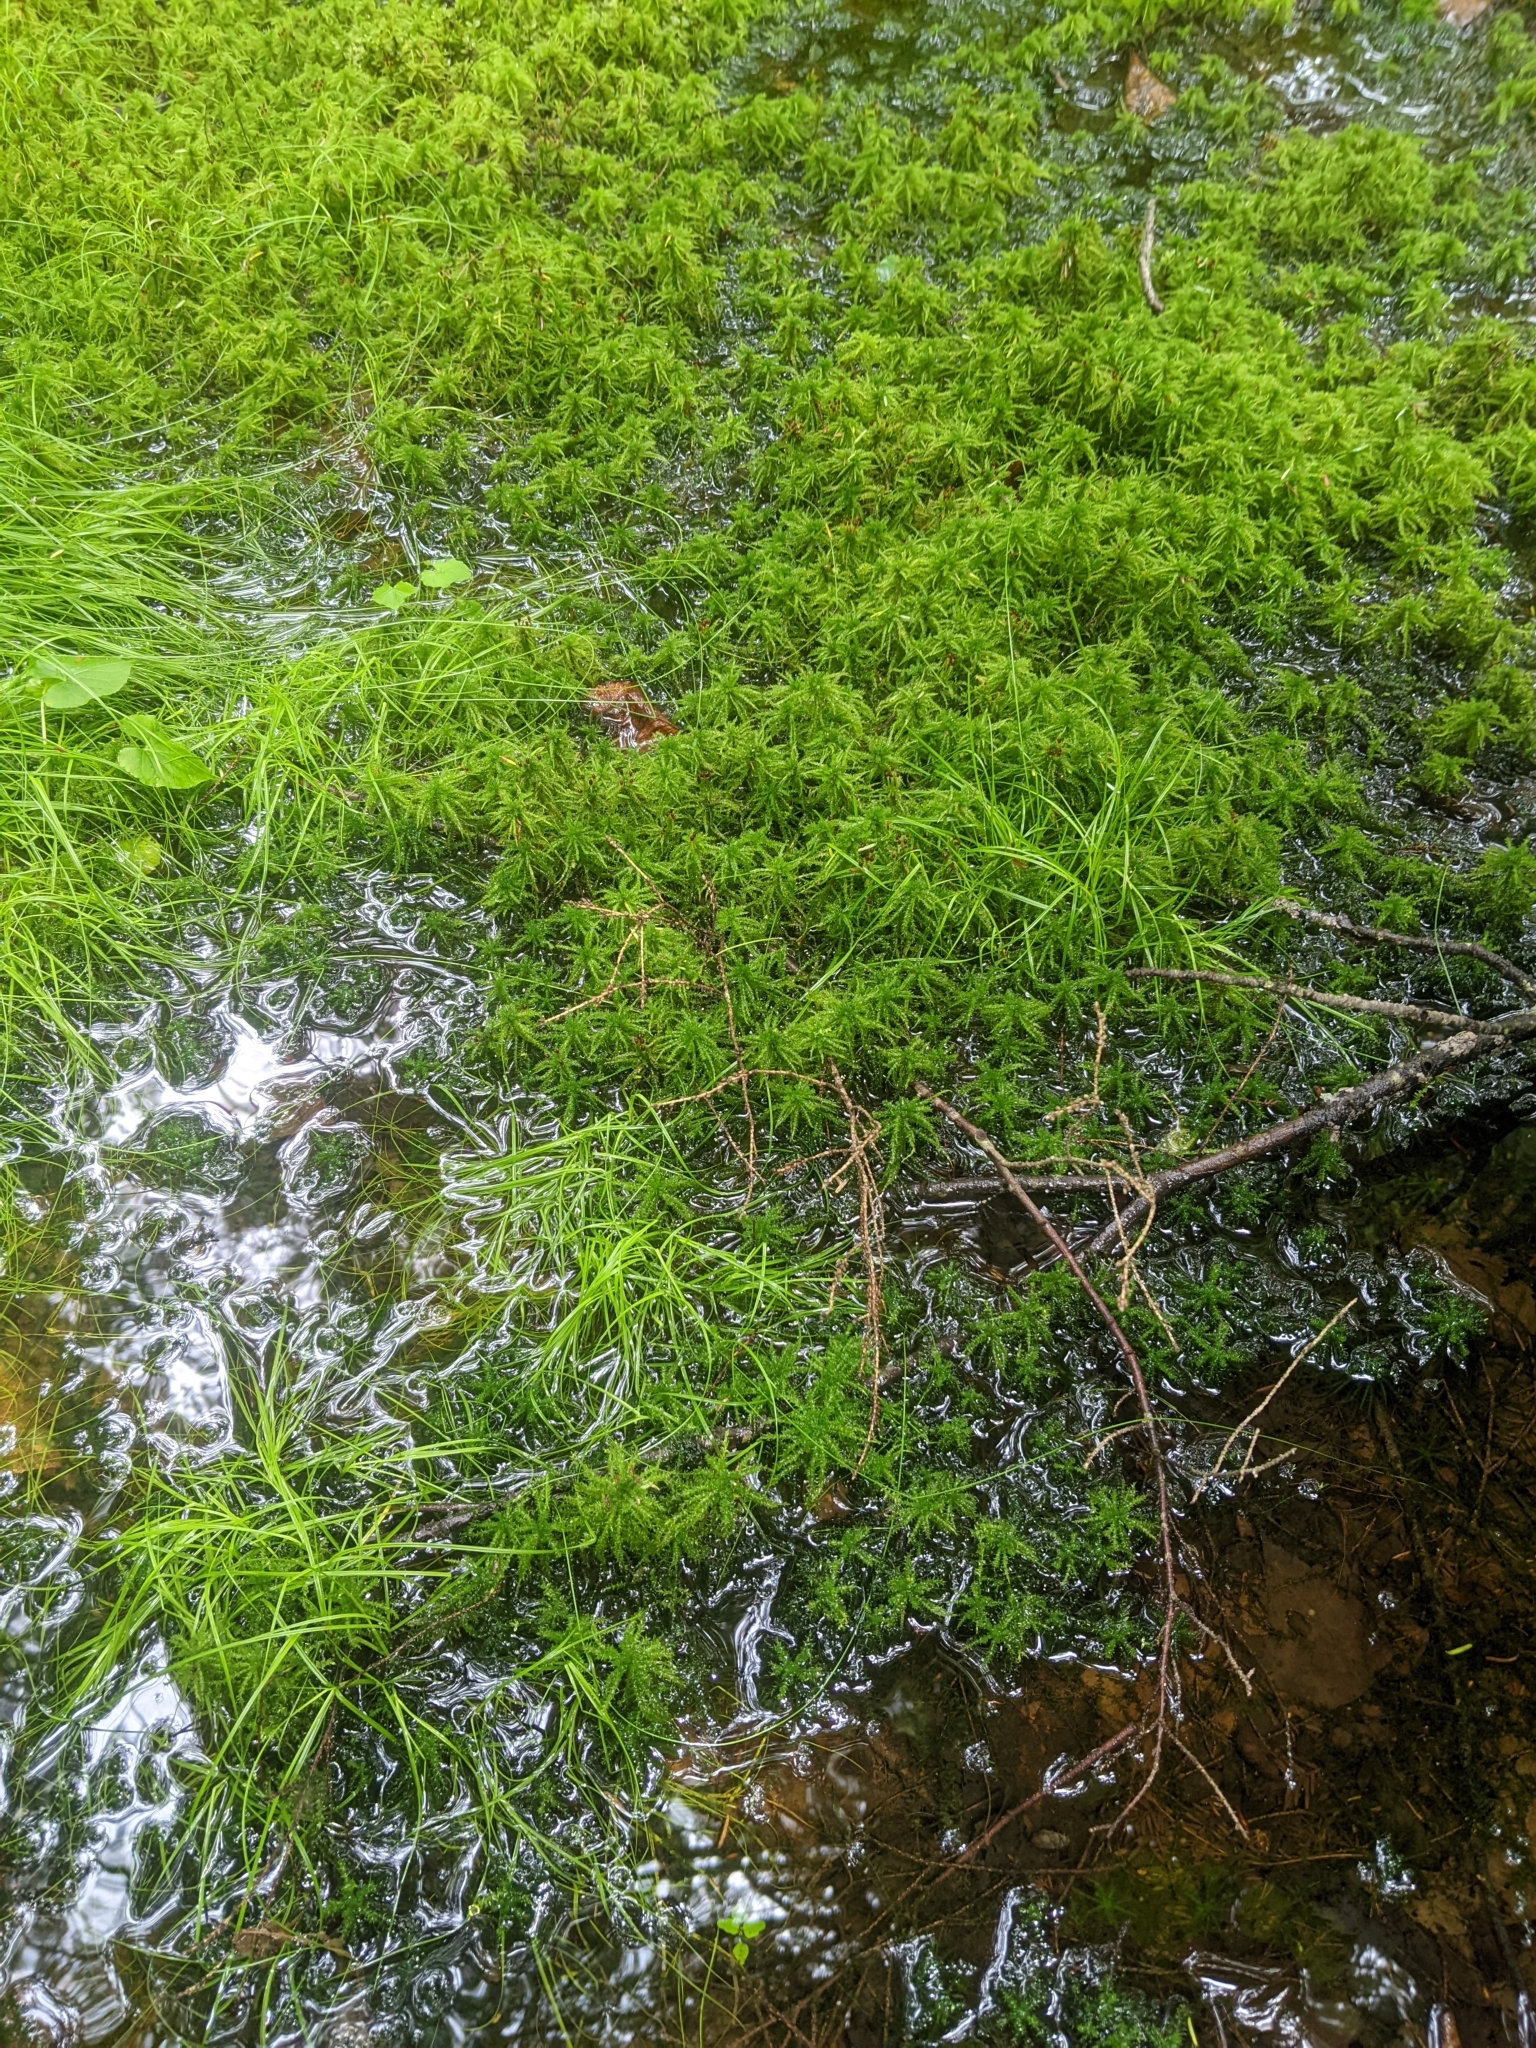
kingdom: Plantae
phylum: Bryophyta
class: Sphagnopsida
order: Sphagnales
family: Sphagnaceae
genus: Sphagnum
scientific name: Sphagnum squarrosum
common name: Shaggy peat moss
